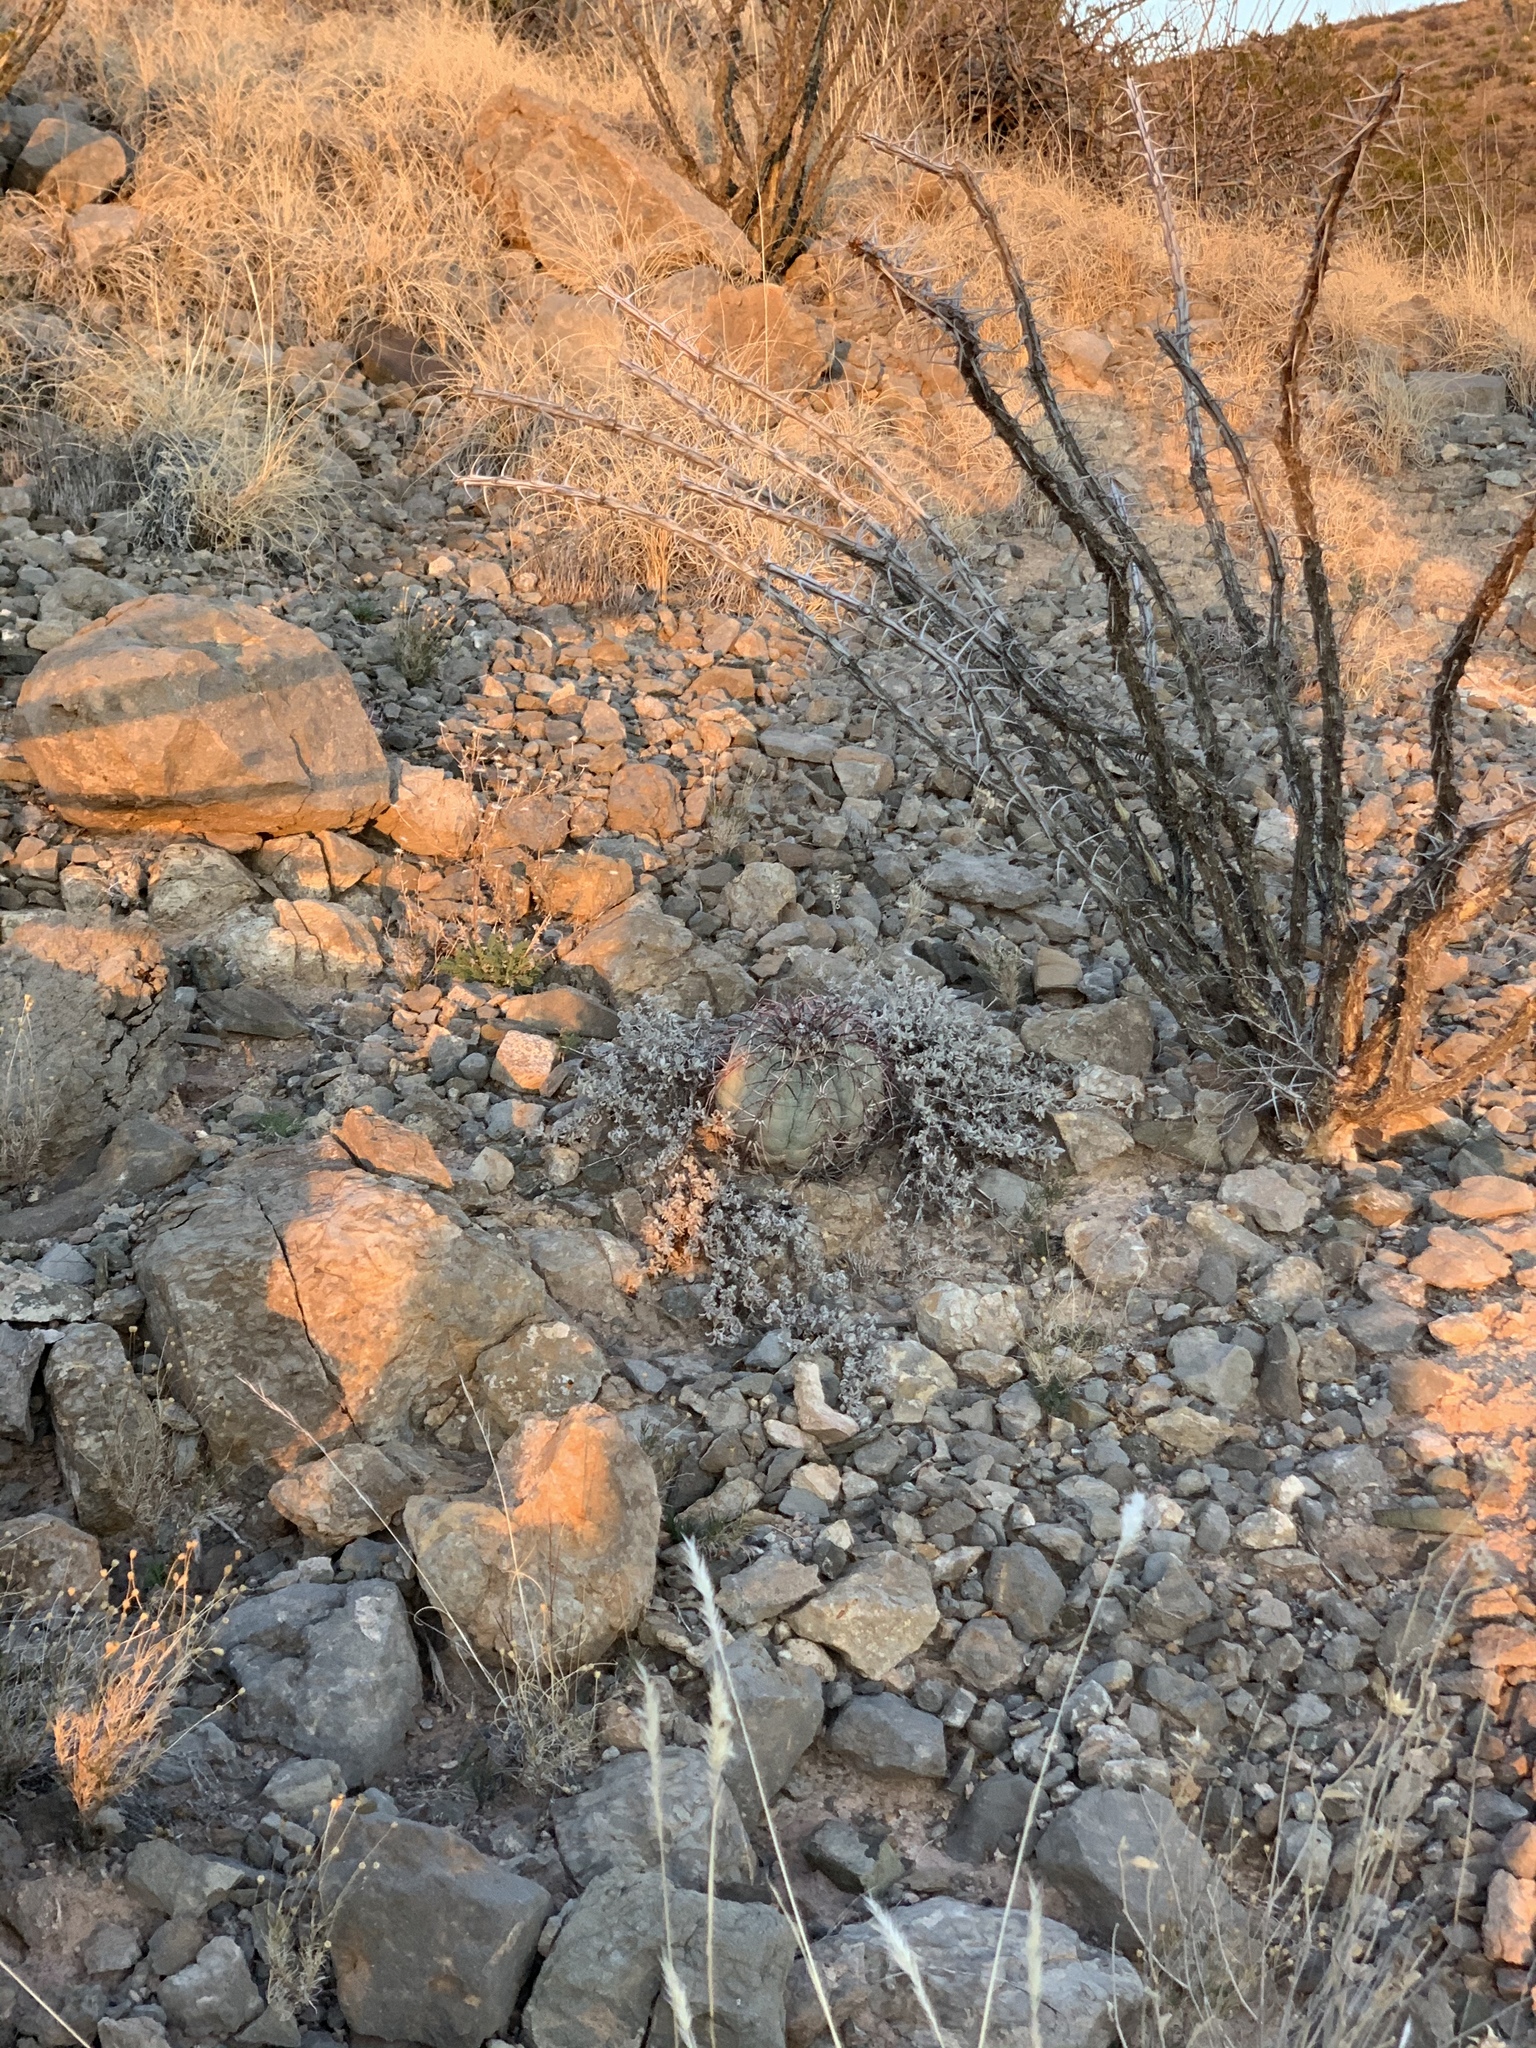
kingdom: Plantae
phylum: Tracheophyta
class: Magnoliopsida
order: Caryophyllales
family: Cactaceae
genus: Echinocactus
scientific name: Echinocactus horizonthalonius
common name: Devilshead
